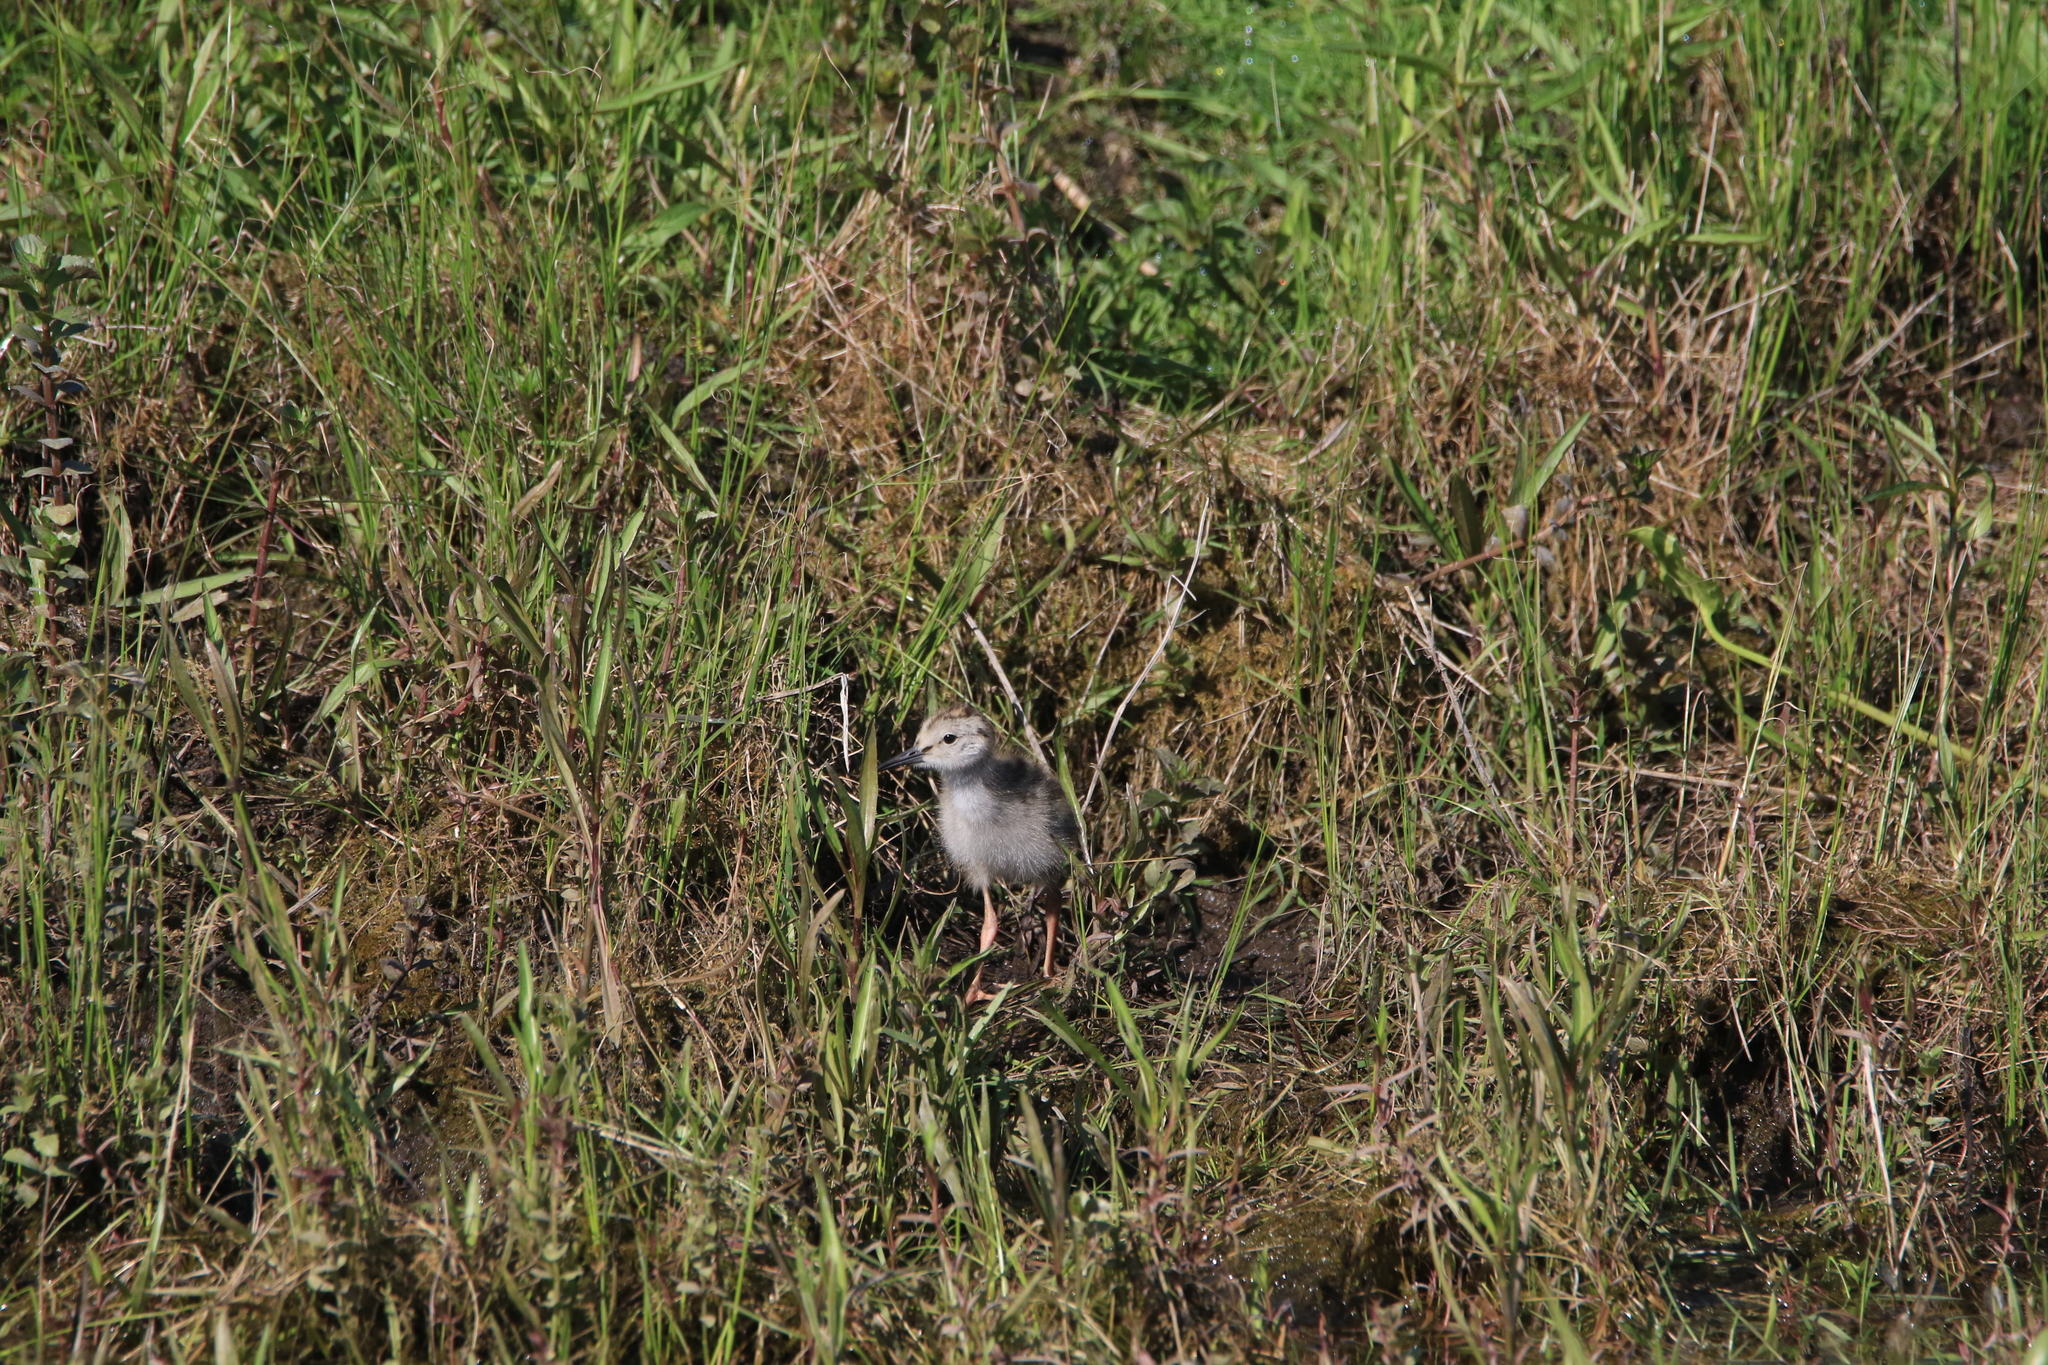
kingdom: Animalia
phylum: Chordata
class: Aves
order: Charadriiformes
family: Scolopacidae
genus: Tringa
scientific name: Tringa totanus
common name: Common redshank
